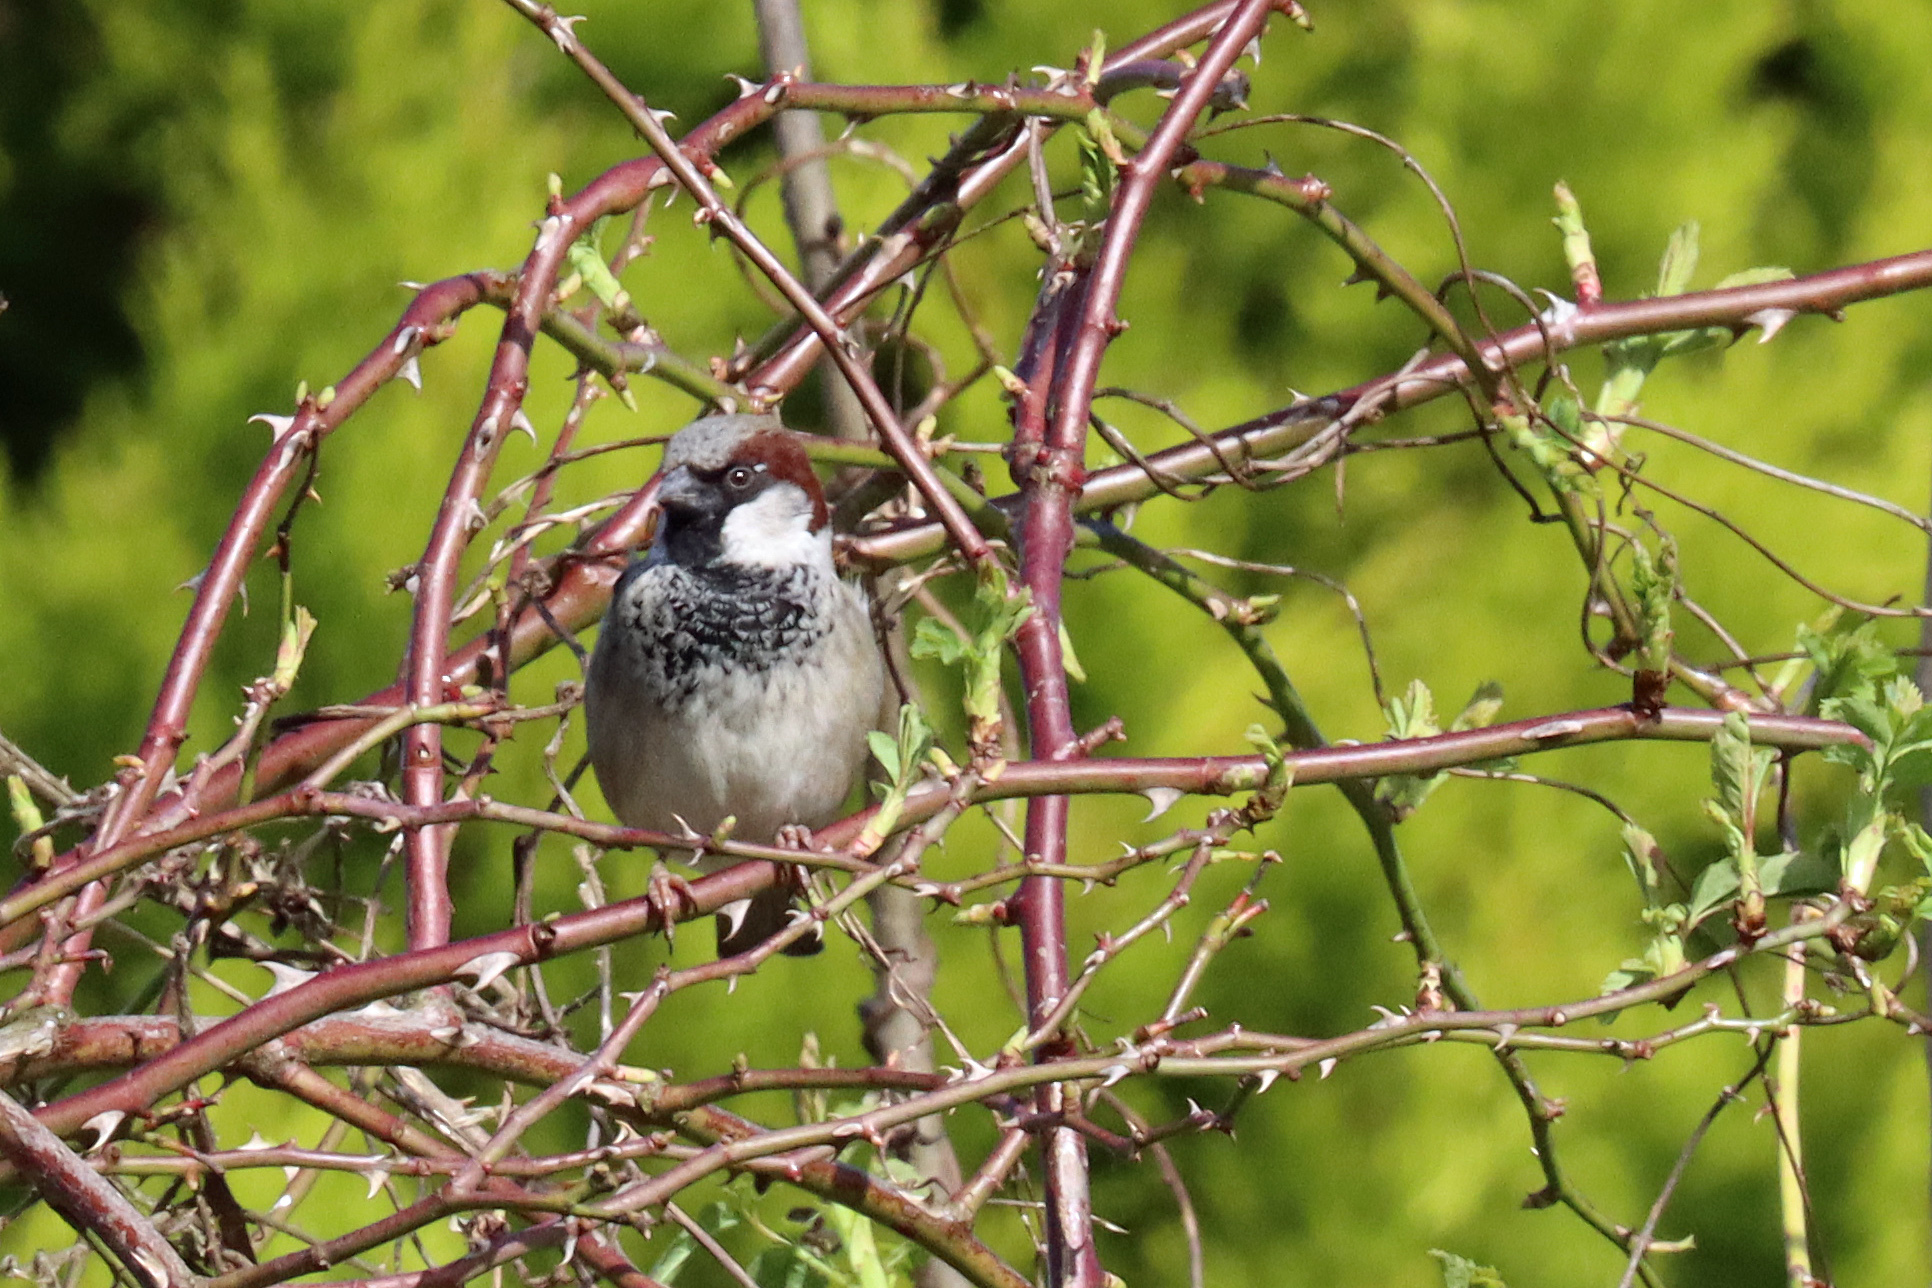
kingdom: Animalia
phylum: Chordata
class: Aves
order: Passeriformes
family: Passeridae
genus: Passer
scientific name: Passer domesticus
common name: House sparrow
